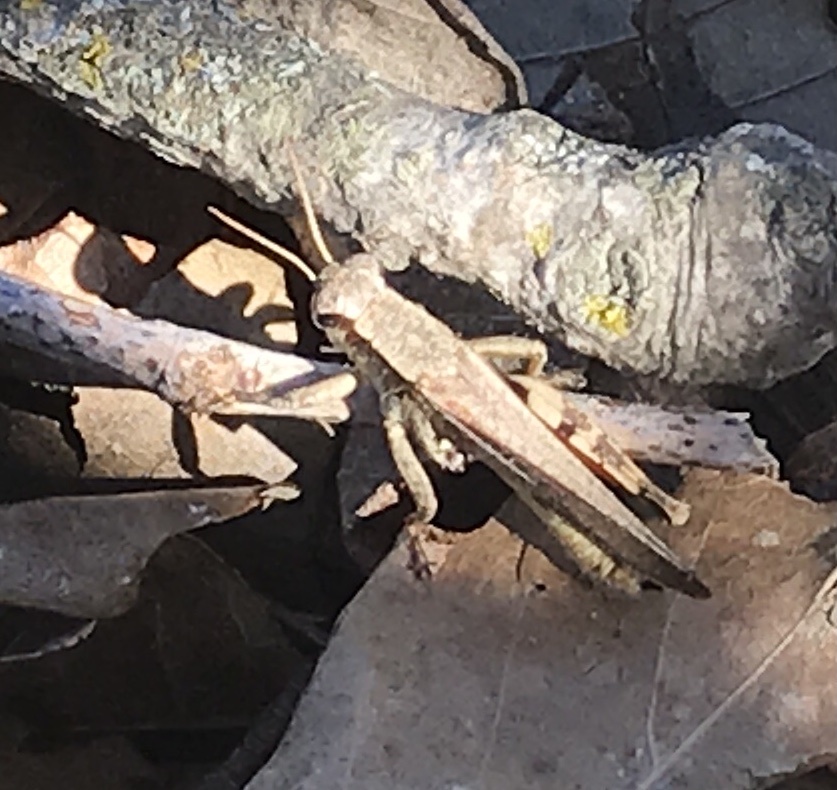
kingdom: Animalia
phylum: Arthropoda
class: Insecta
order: Orthoptera
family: Acrididae
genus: Aidemona
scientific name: Aidemona azteca
